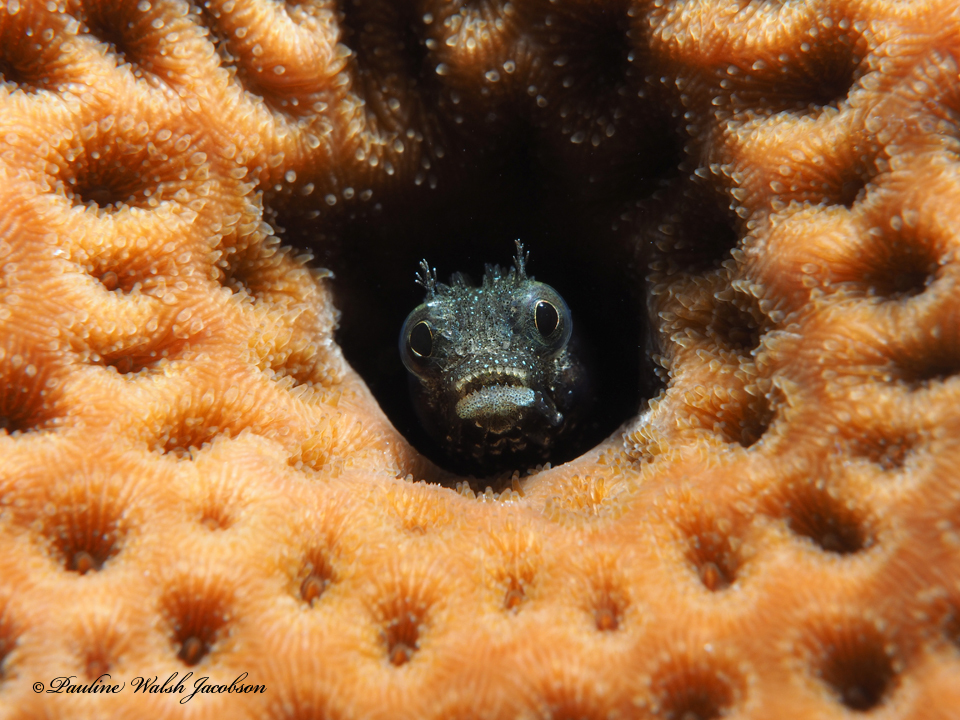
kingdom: Animalia
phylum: Chordata
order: Perciformes
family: Chaenopsidae
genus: Acanthemblemaria
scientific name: Acanthemblemaria spinosa
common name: Spinyhead blenny
